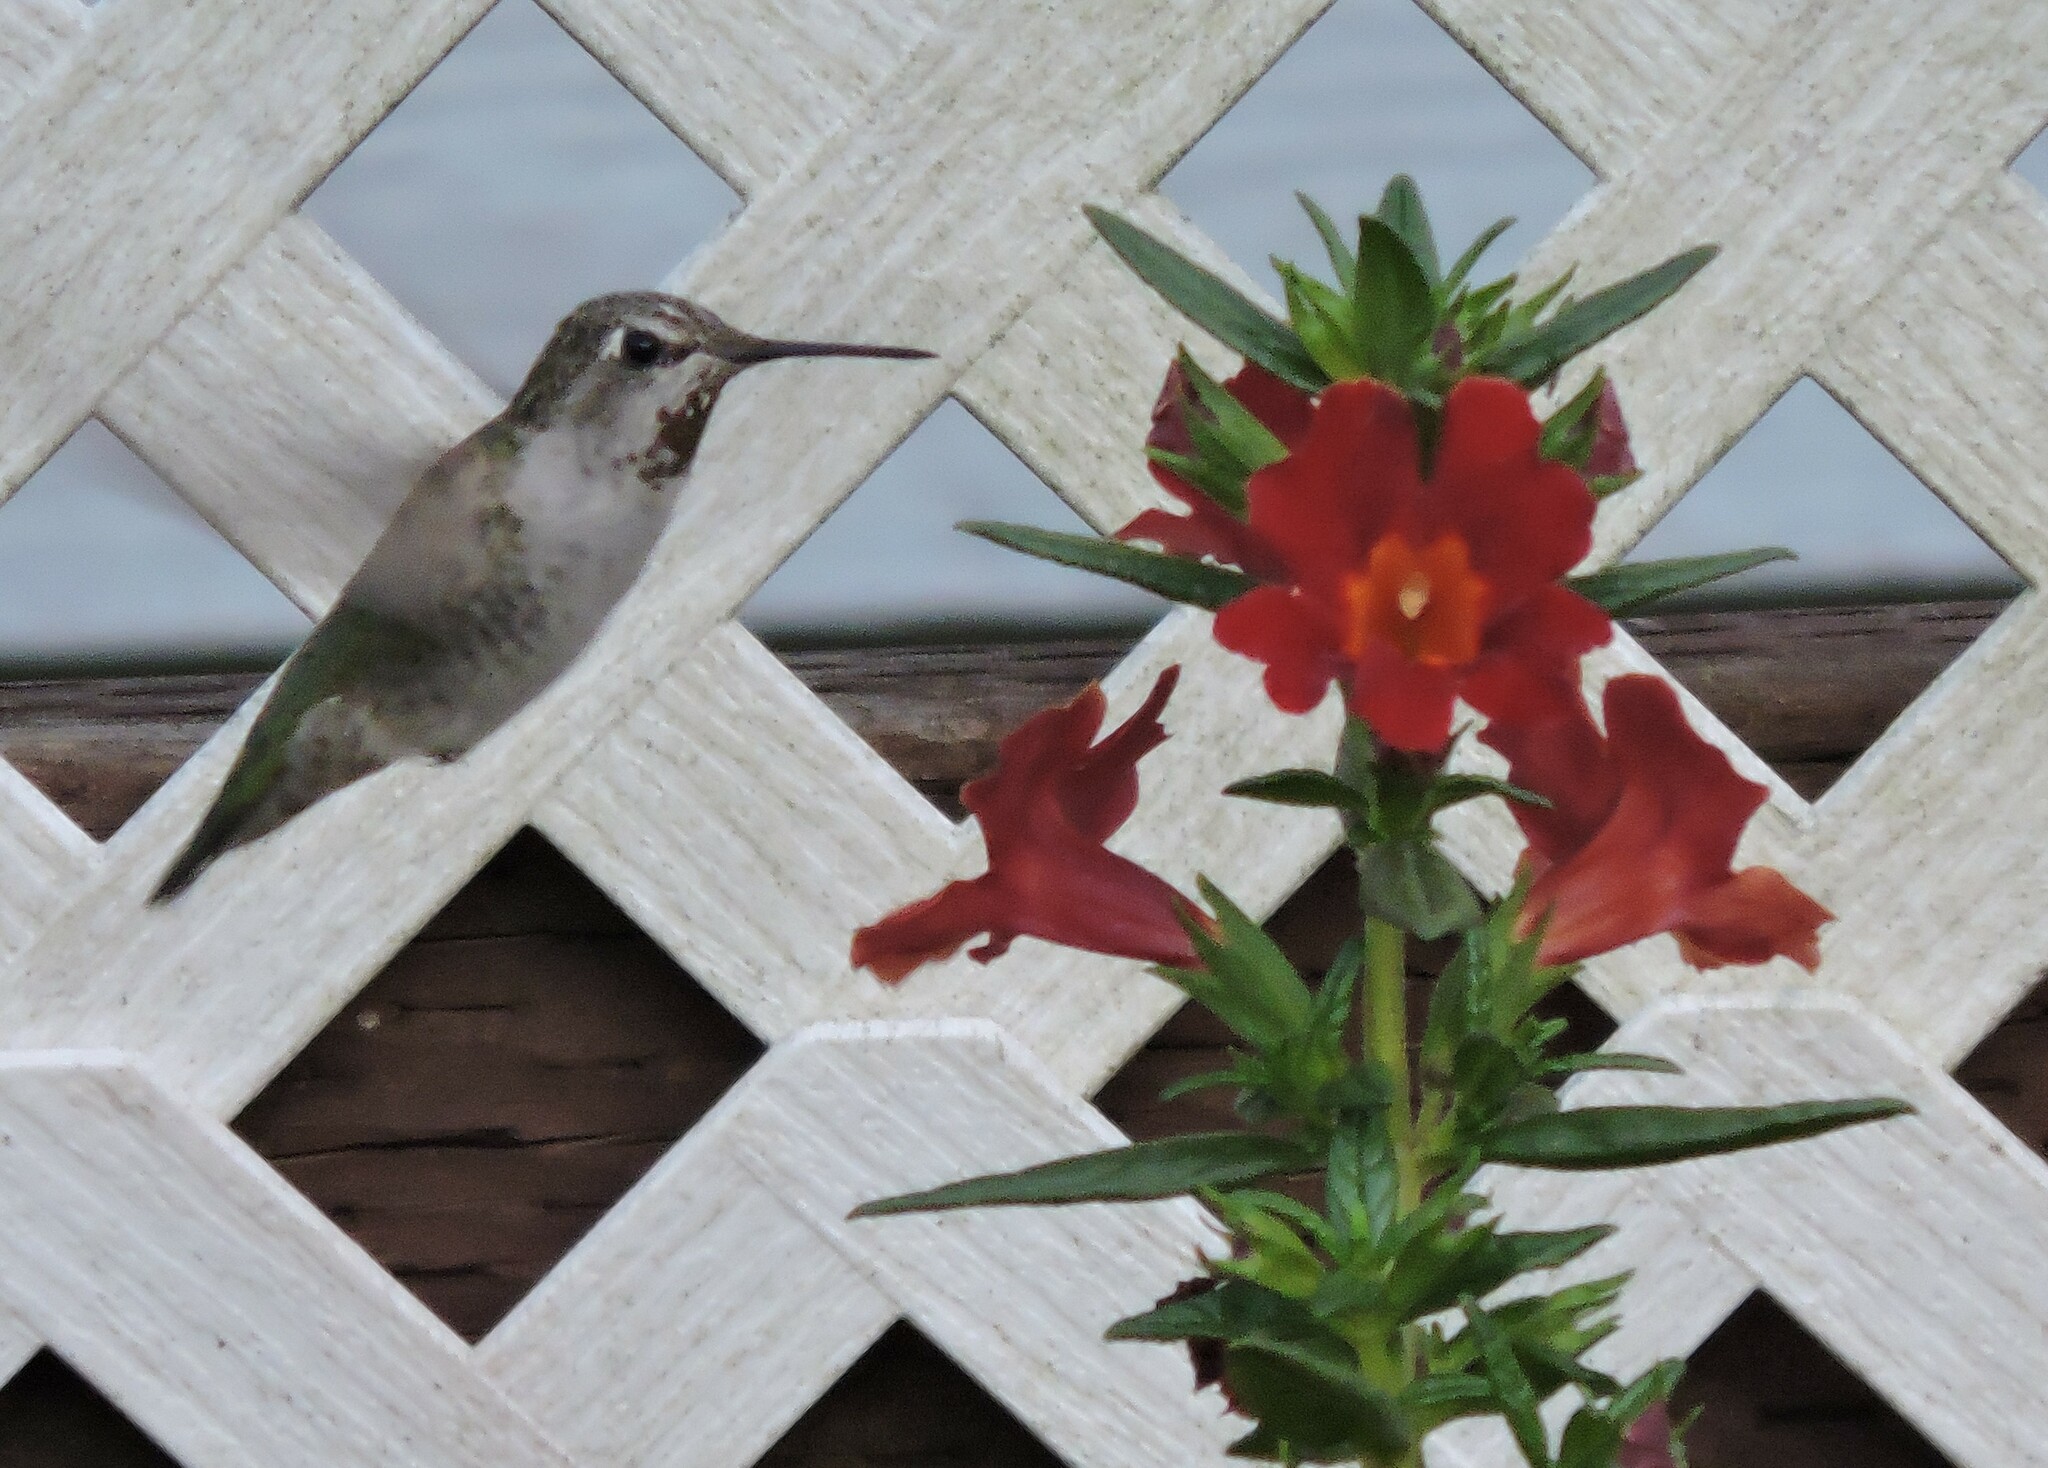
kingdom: Animalia
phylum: Chordata
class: Aves
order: Apodiformes
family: Trochilidae
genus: Calypte
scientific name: Calypte anna
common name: Anna's hummingbird
